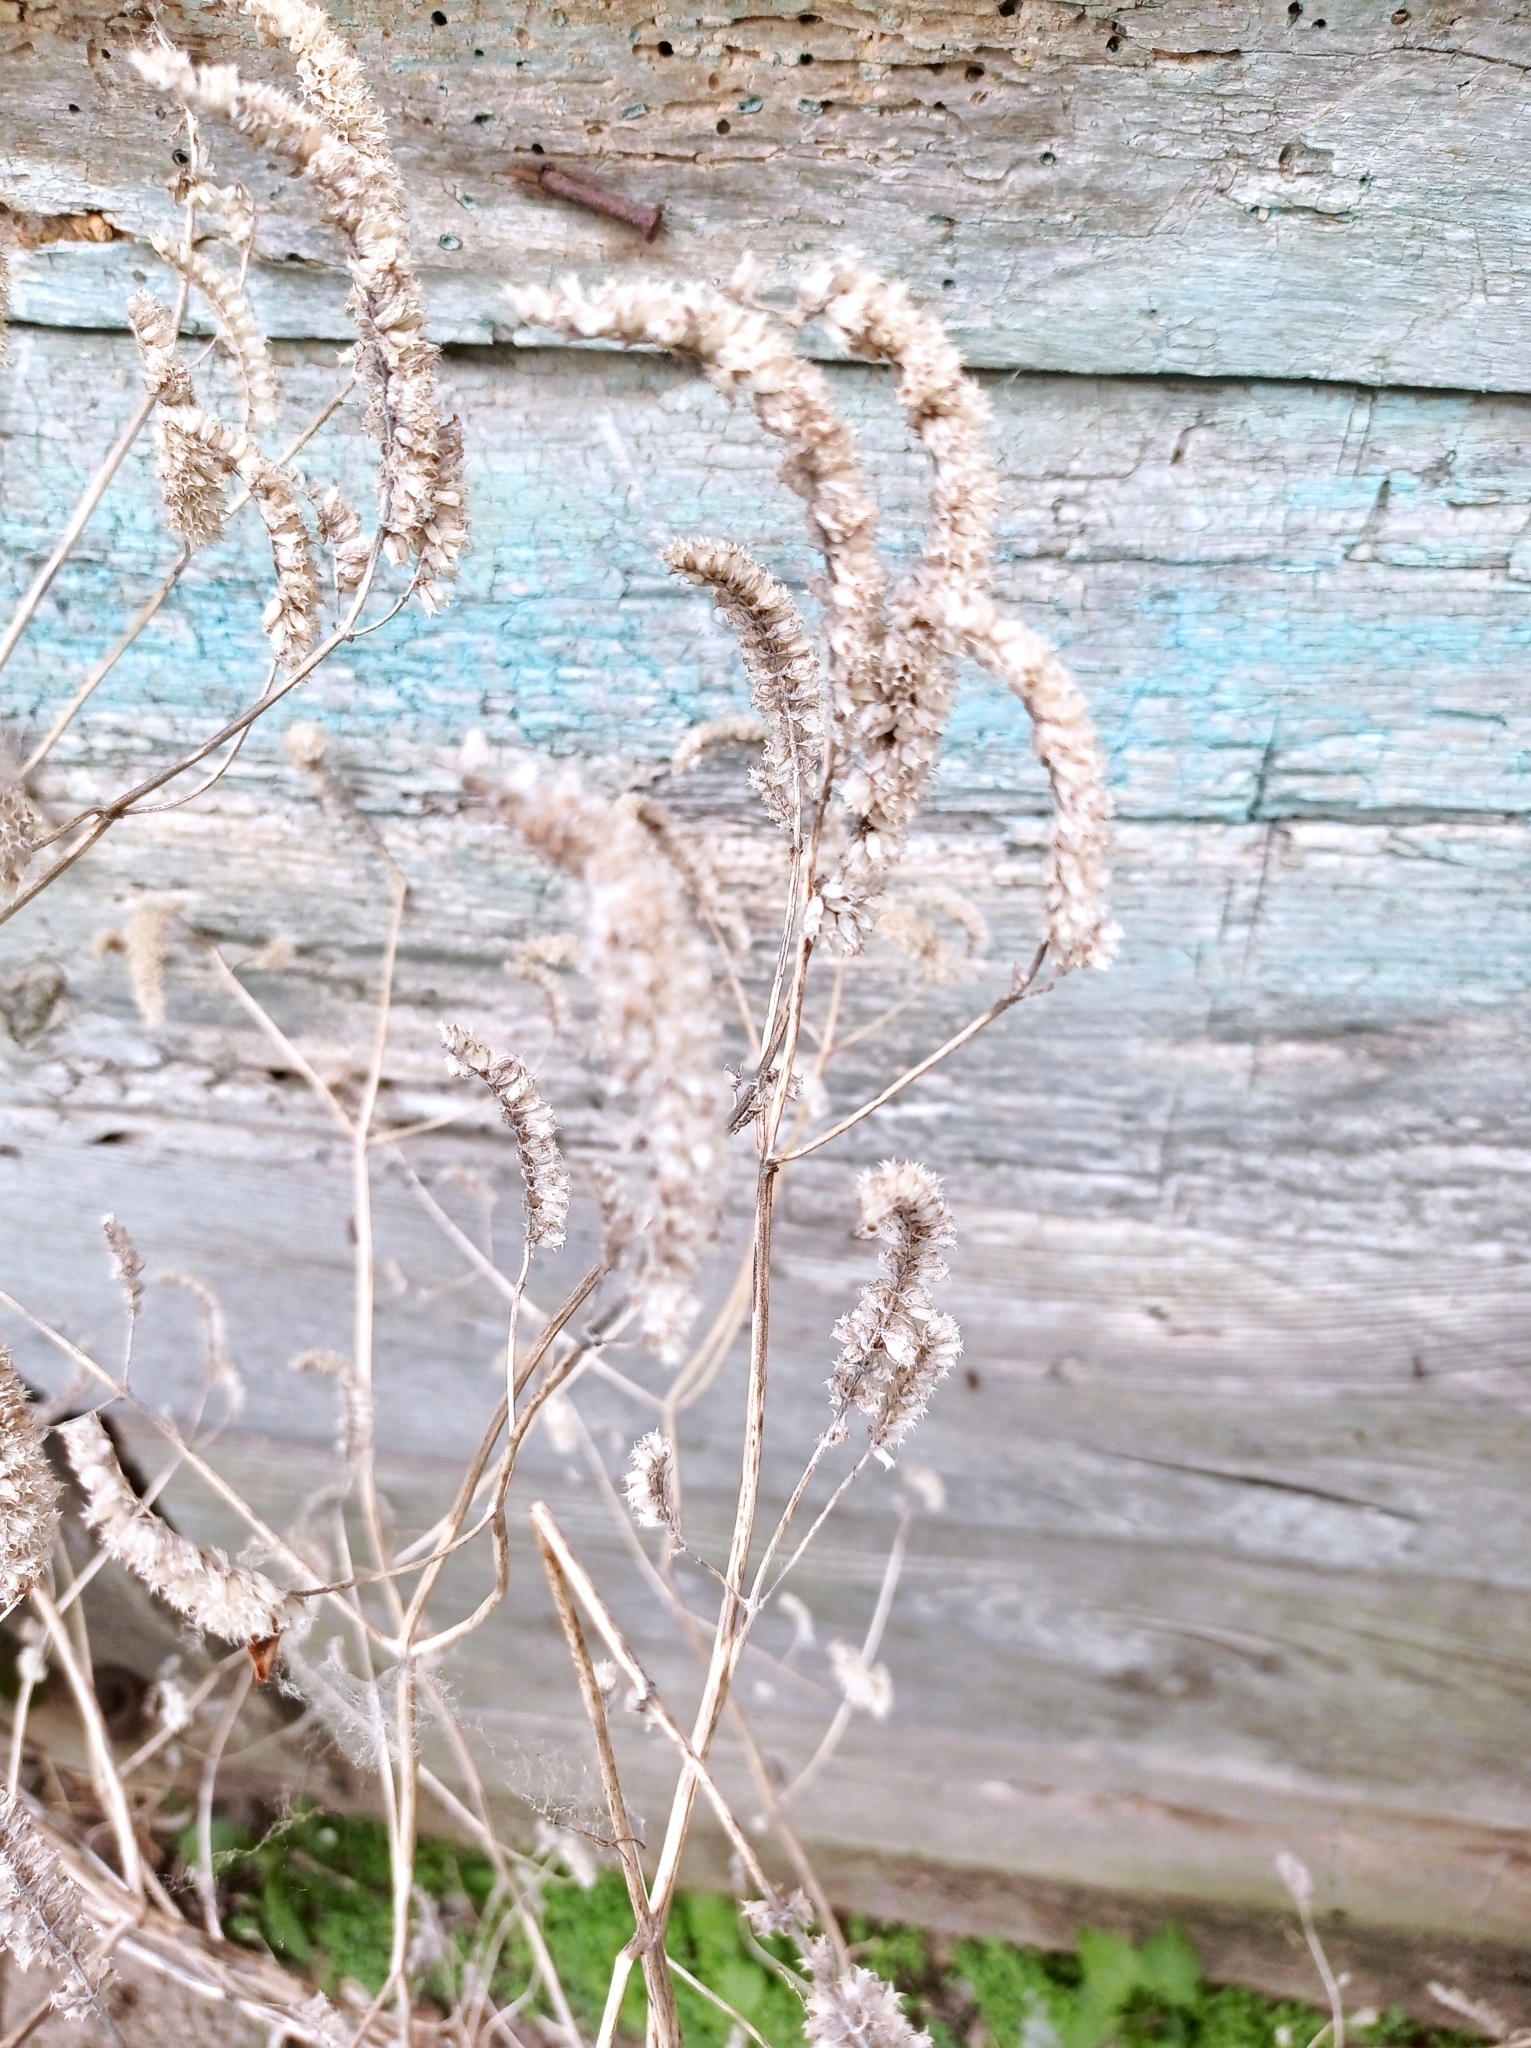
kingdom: Plantae
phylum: Tracheophyta
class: Magnoliopsida
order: Lamiales
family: Lamiaceae
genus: Elsholtzia
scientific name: Elsholtzia ciliata
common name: Ciliate elsholtzia
